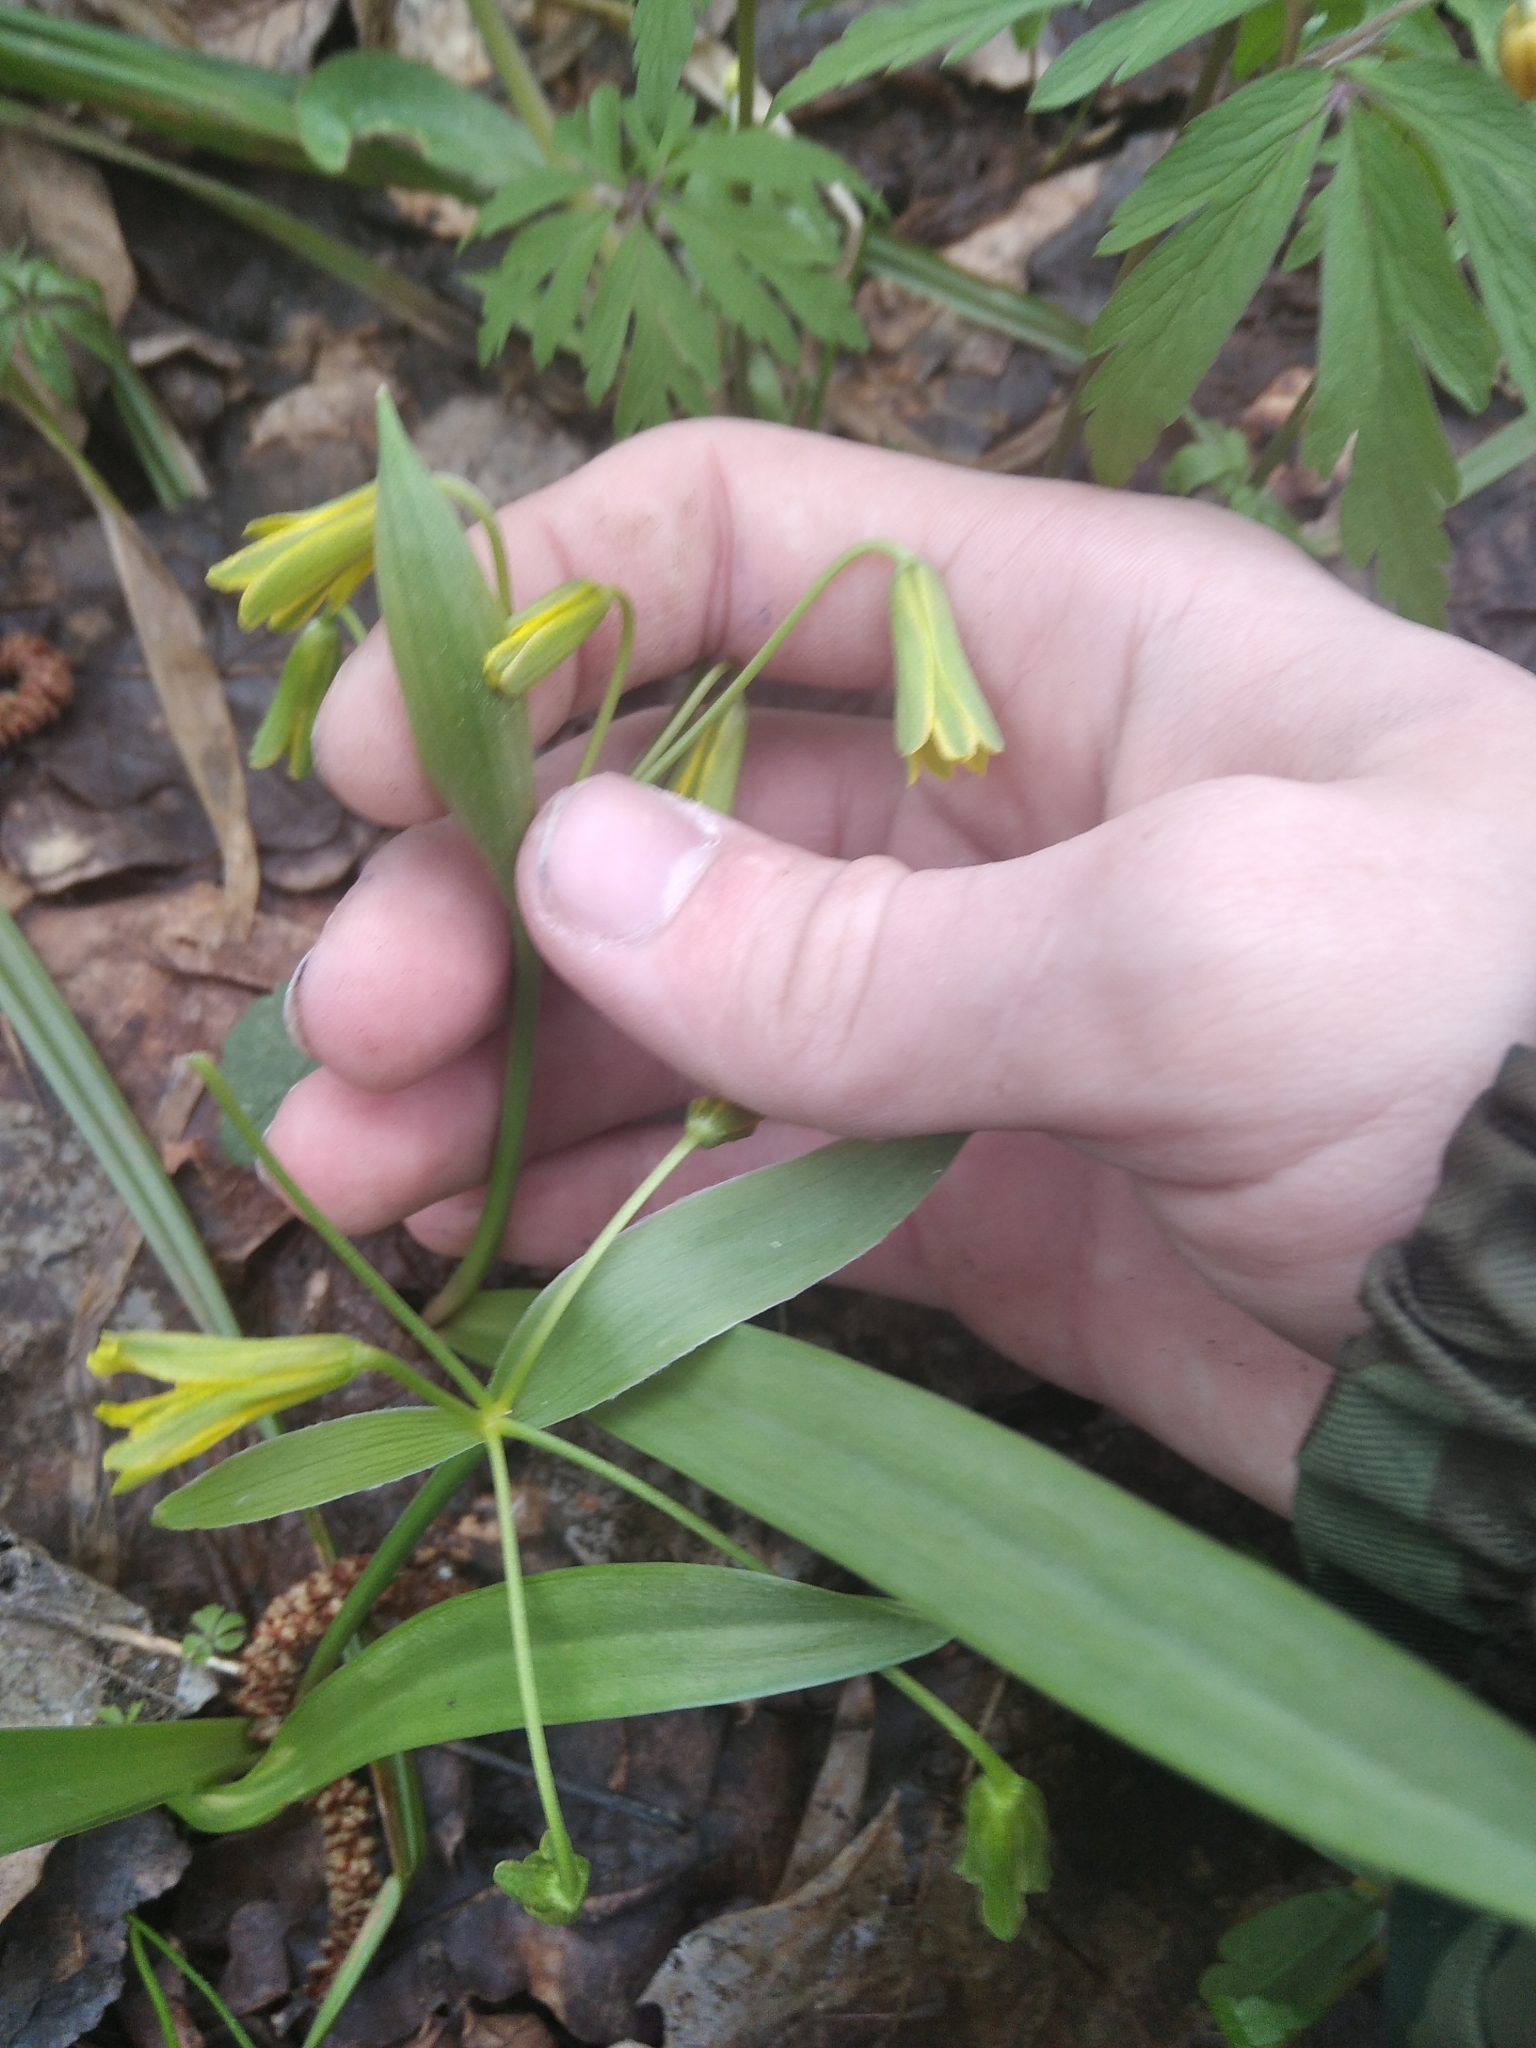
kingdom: Plantae
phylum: Tracheophyta
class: Liliopsida
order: Liliales
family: Liliaceae
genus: Gagea
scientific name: Gagea lutea
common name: Yellow star-of-bethlehem
